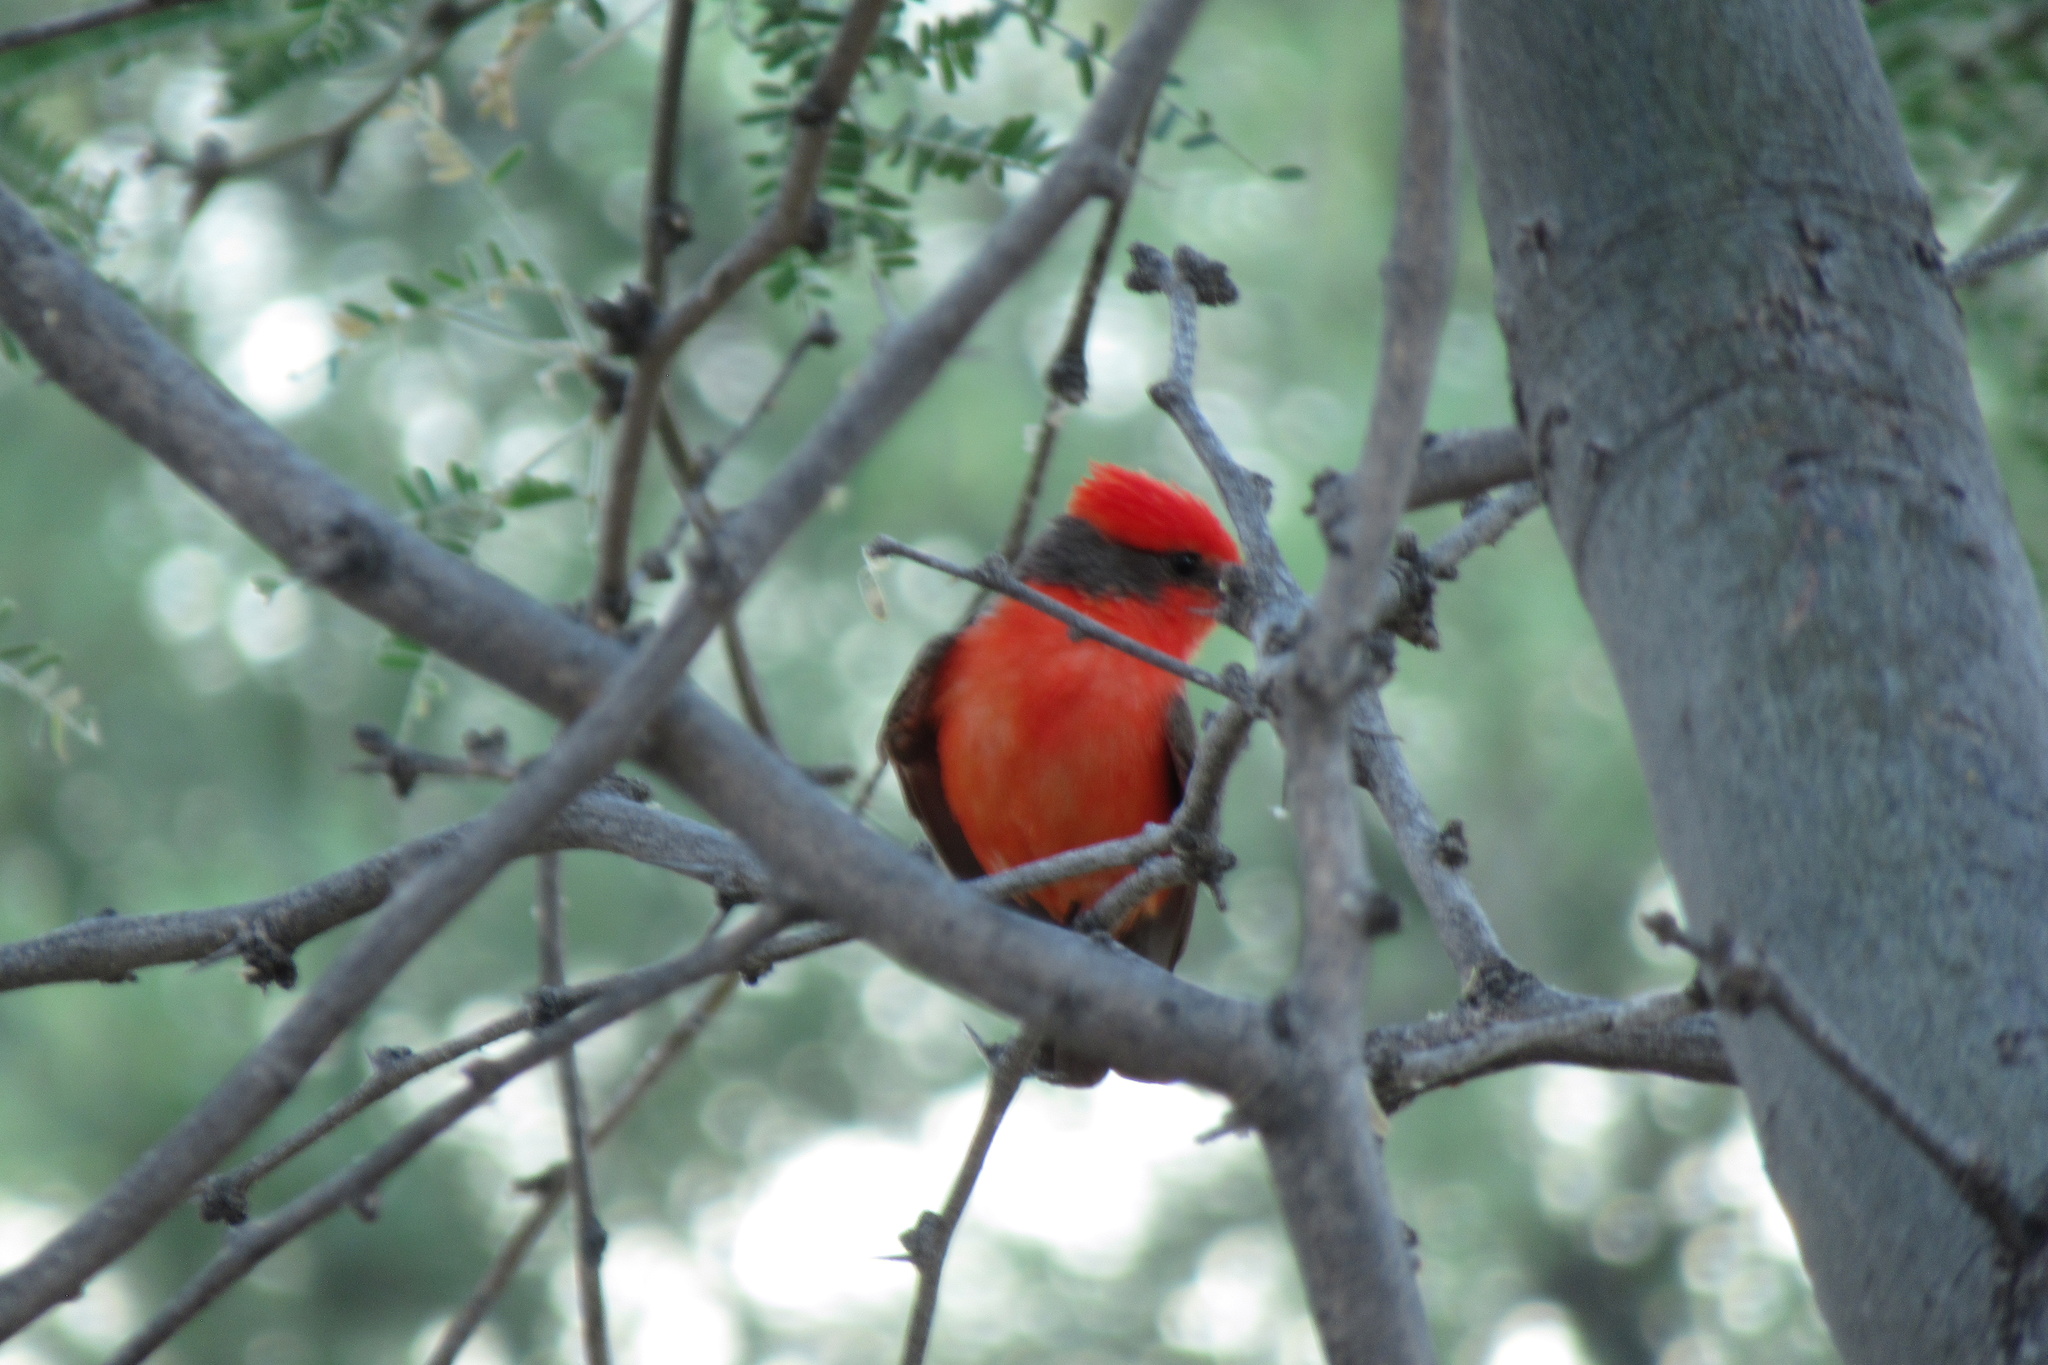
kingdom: Animalia
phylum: Chordata
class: Aves
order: Passeriformes
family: Tyrannidae
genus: Pyrocephalus
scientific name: Pyrocephalus rubinus
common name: Vermilion flycatcher
